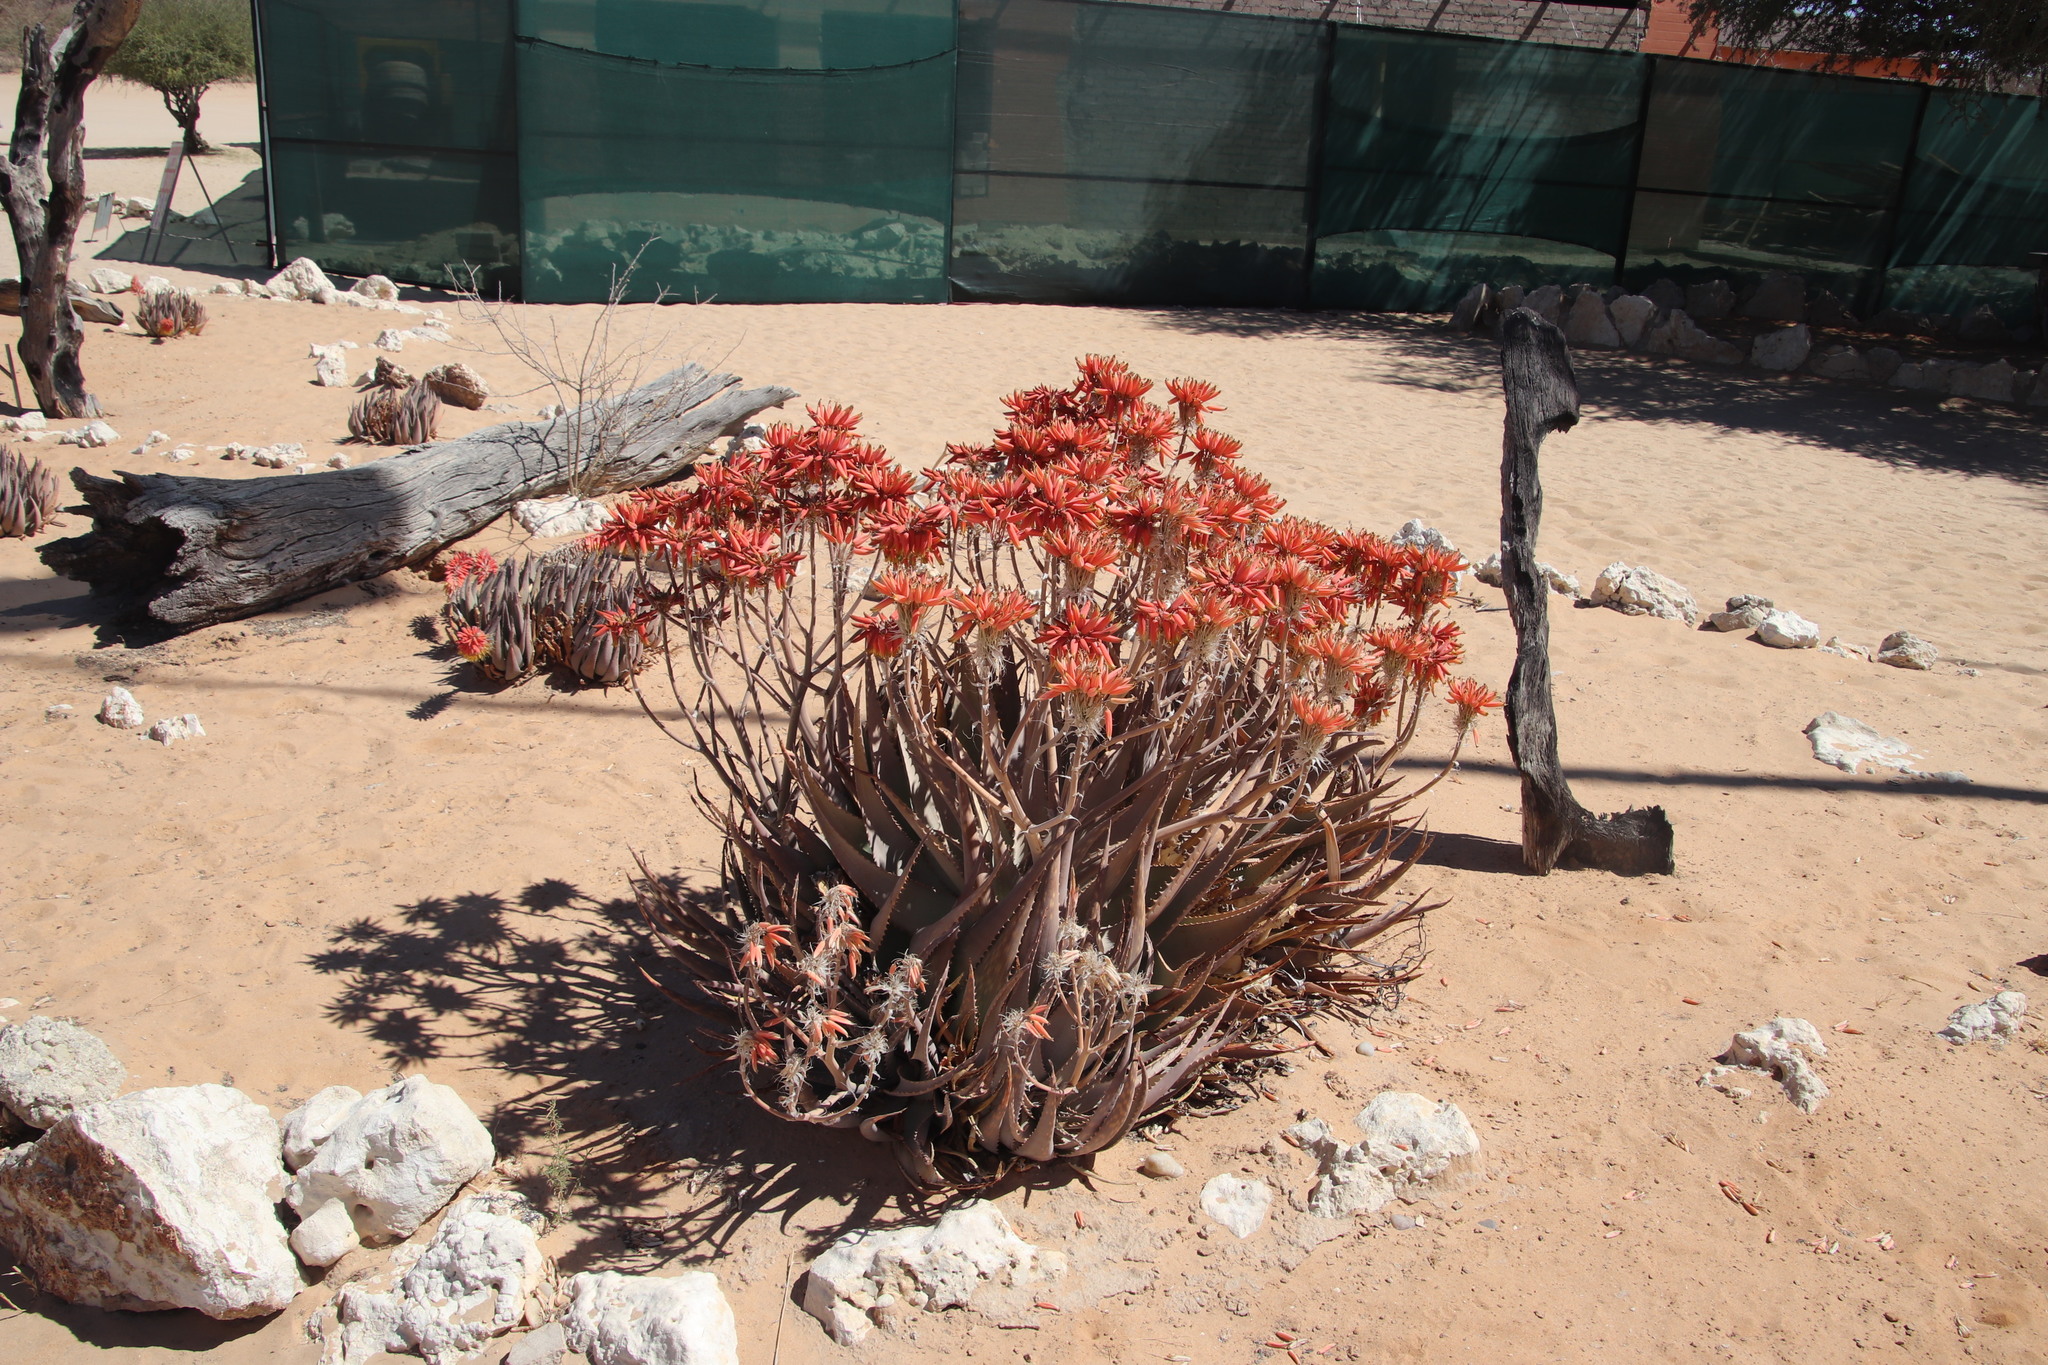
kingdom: Plantae
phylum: Tracheophyta
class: Liliopsida
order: Asparagales
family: Asphodelaceae
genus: Aloe
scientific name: Aloe hereroensis
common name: Herero aloe
